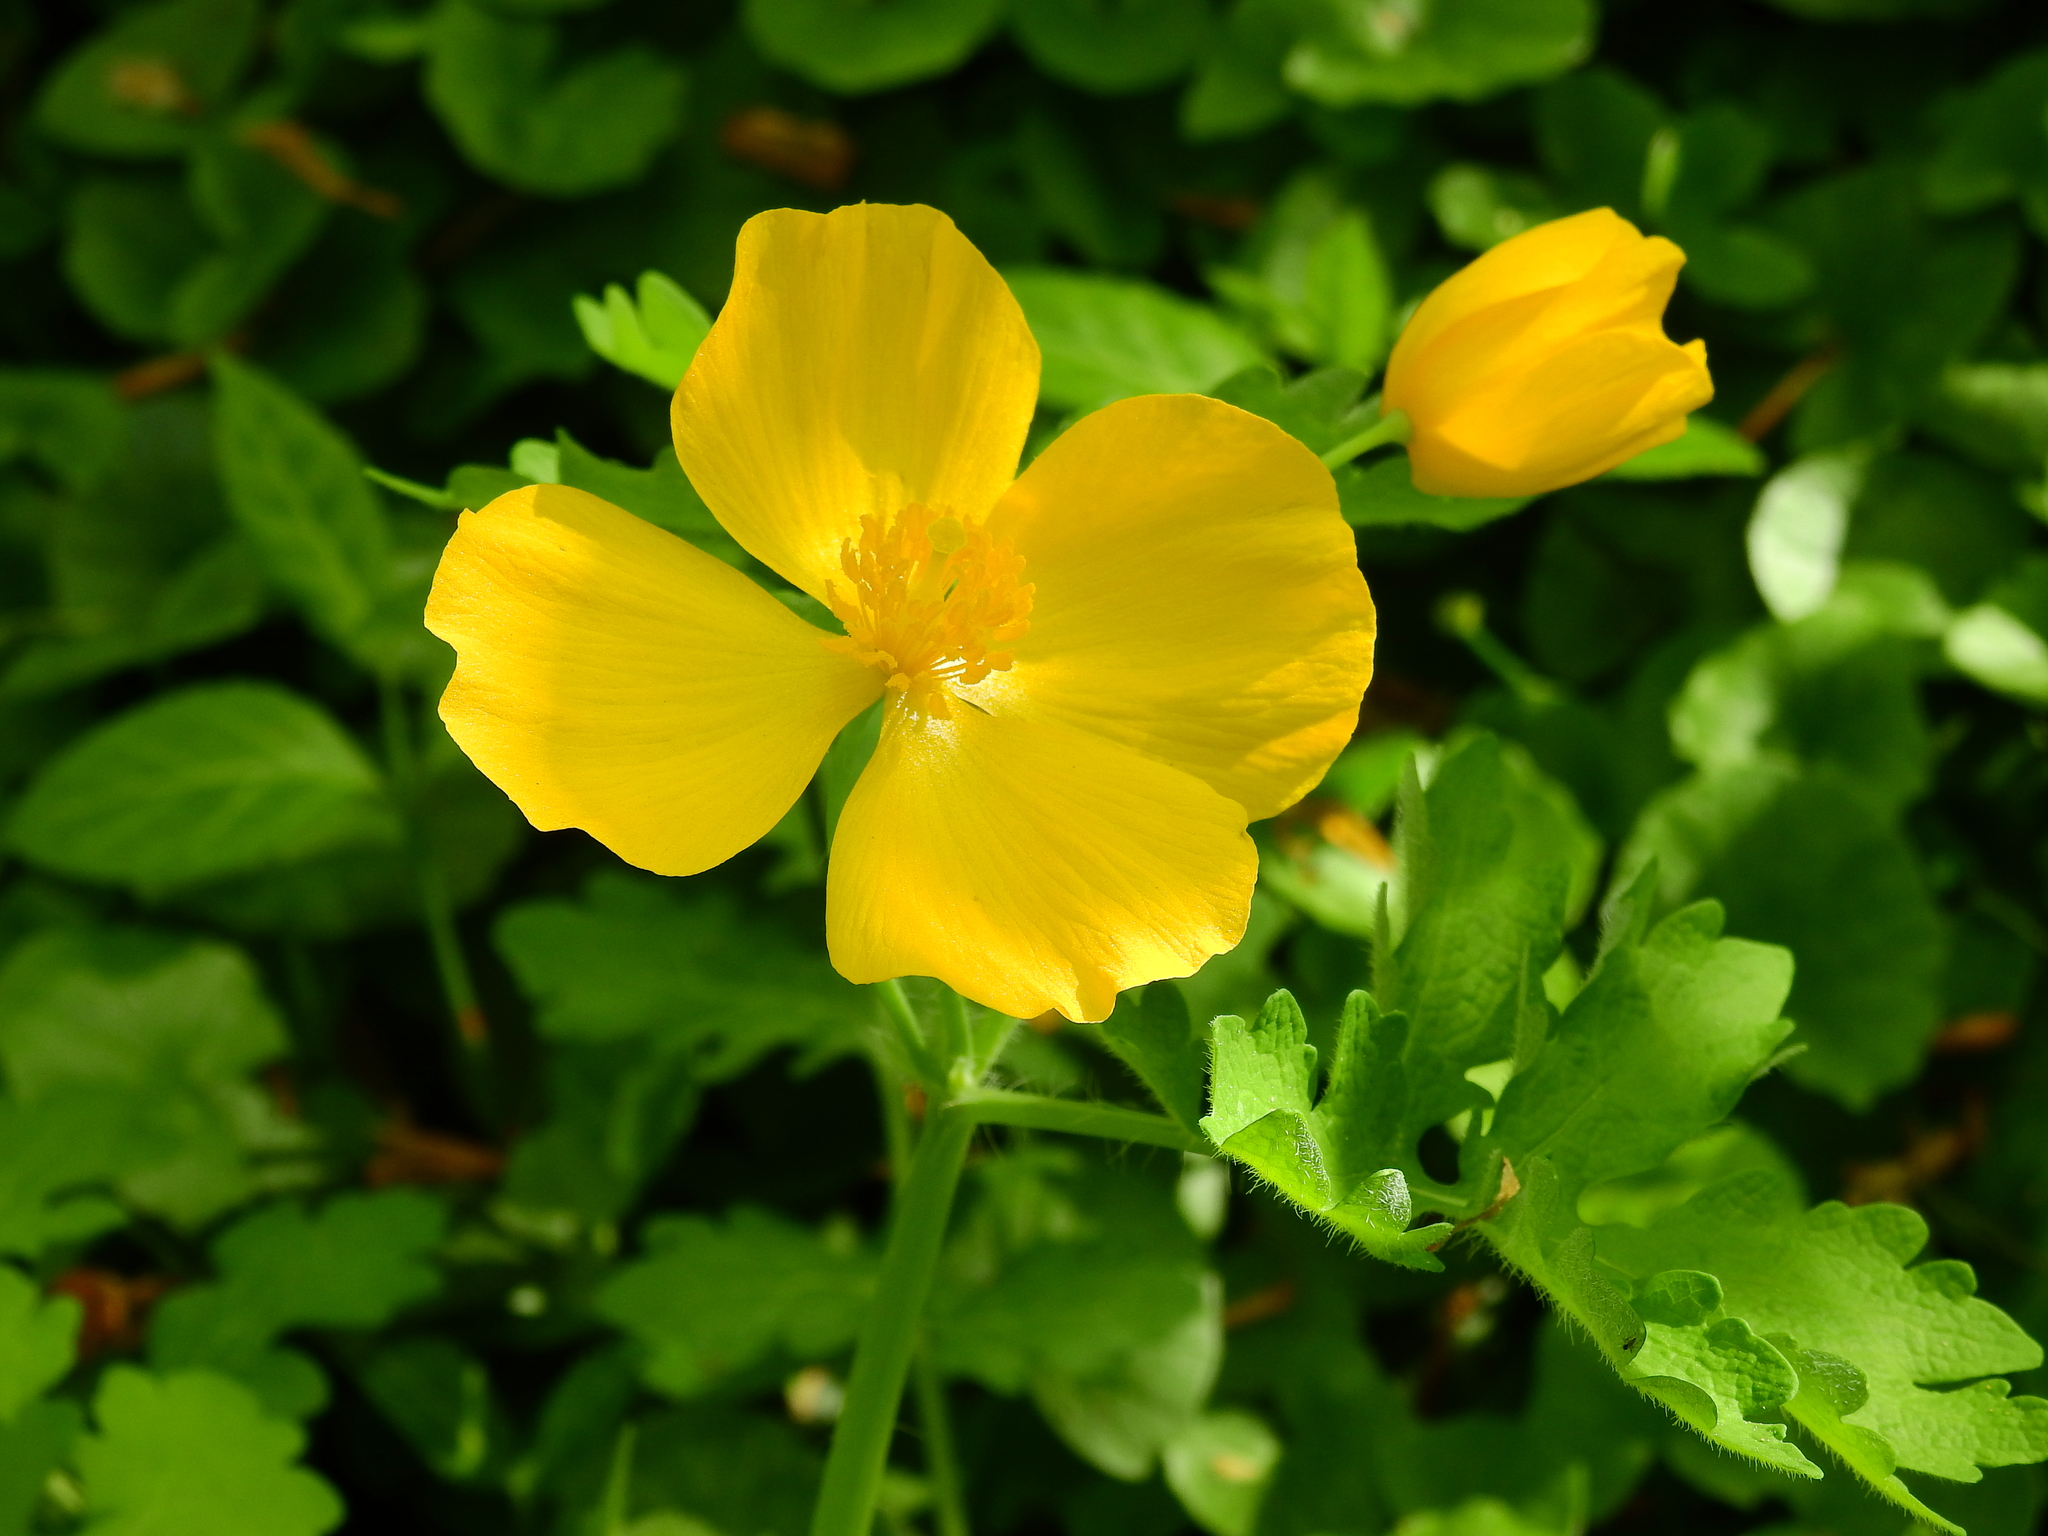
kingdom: Plantae
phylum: Tracheophyta
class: Magnoliopsida
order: Ranunculales
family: Papaveraceae
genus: Stylophorum
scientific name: Stylophorum diphyllum
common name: Celandine poppy
